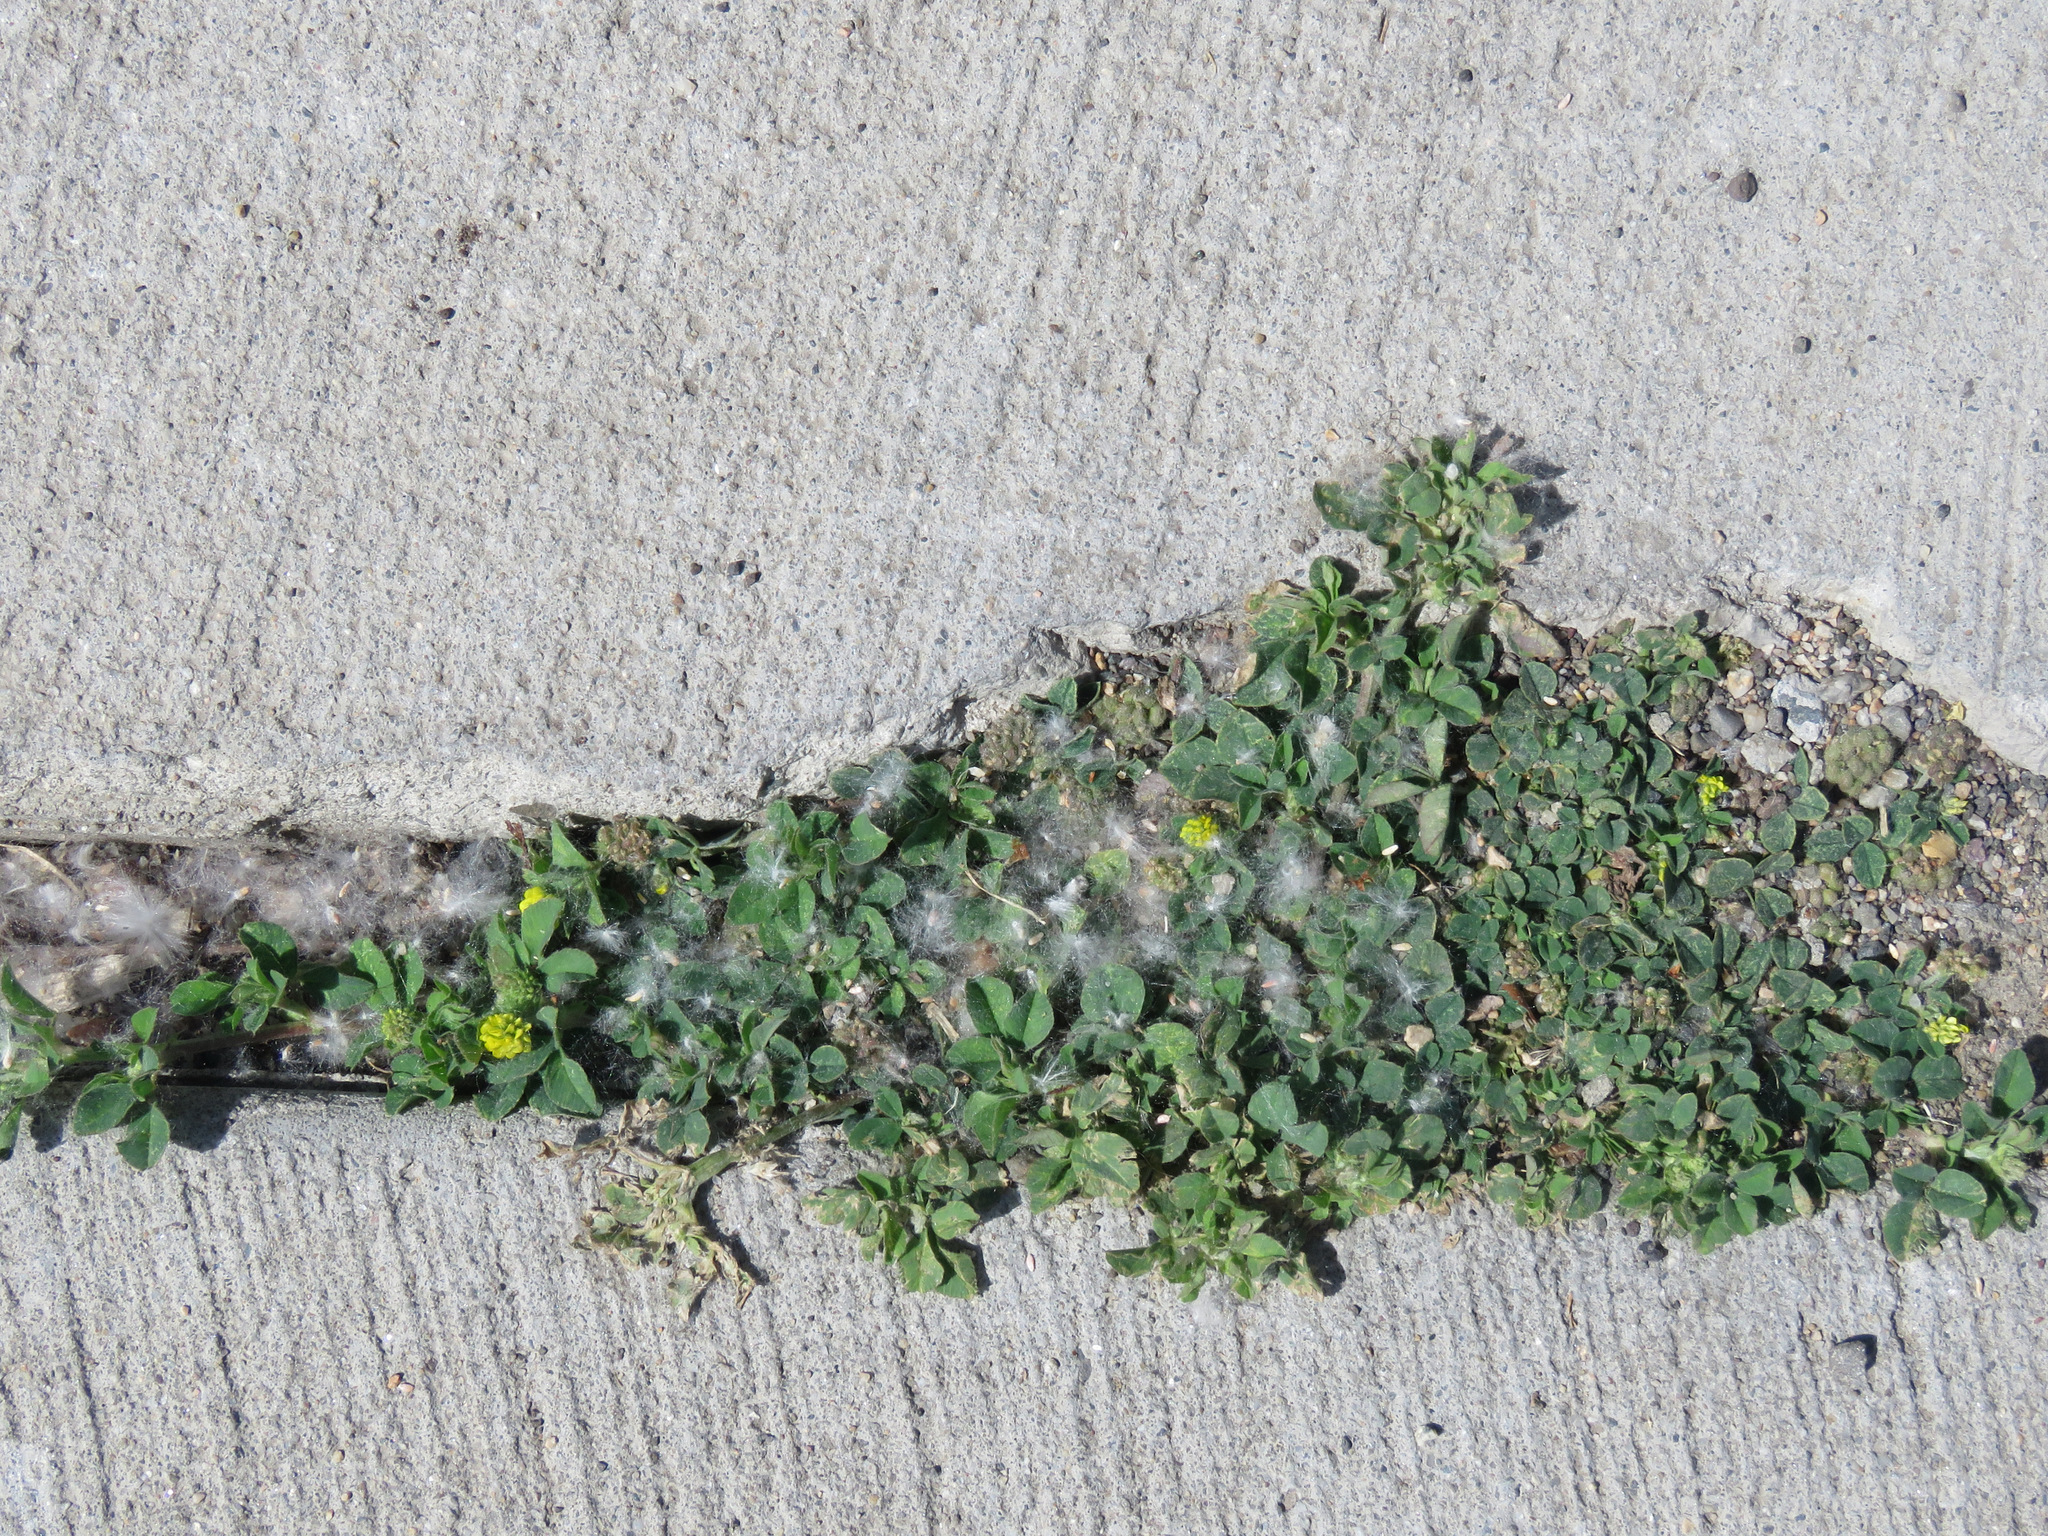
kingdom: Plantae
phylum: Tracheophyta
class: Magnoliopsida
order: Fabales
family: Fabaceae
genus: Medicago
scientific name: Medicago lupulina
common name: Black medick
